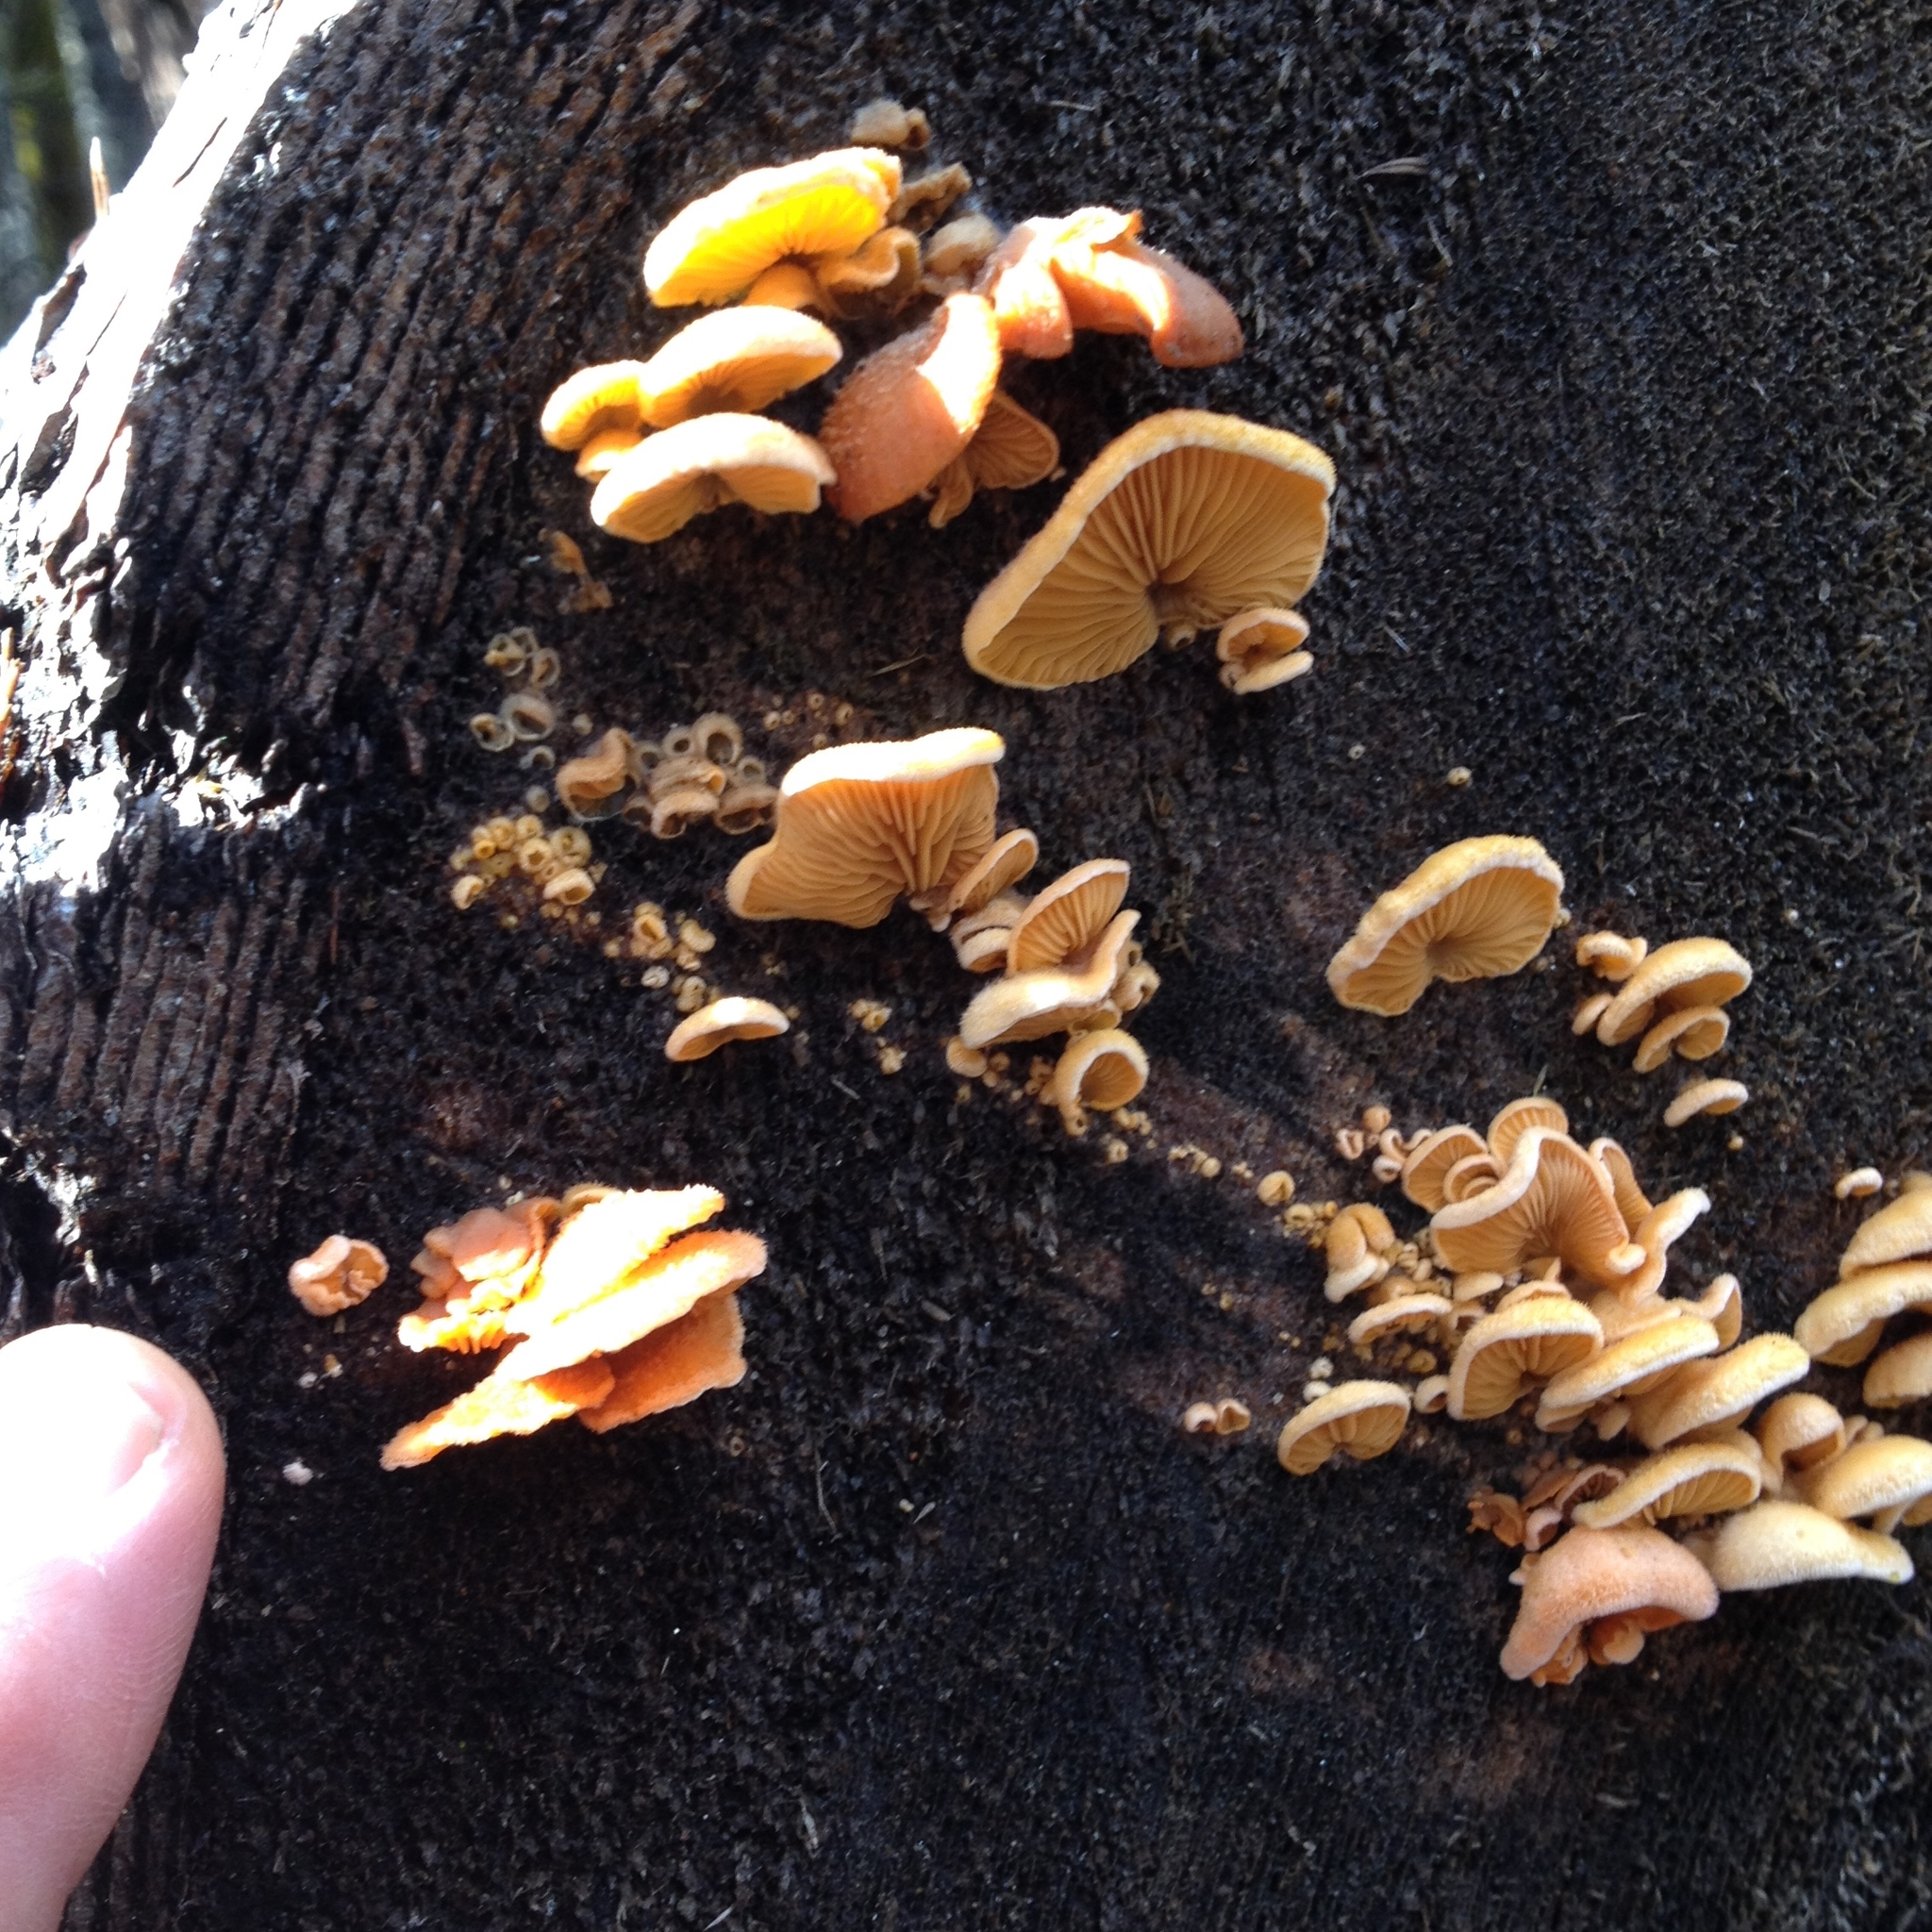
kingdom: Fungi
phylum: Basidiomycota
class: Agaricomycetes
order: Agaricales
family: Phyllotopsidaceae
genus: Phyllotopsis
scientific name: Phyllotopsis nidulans
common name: Orange mock oyster
